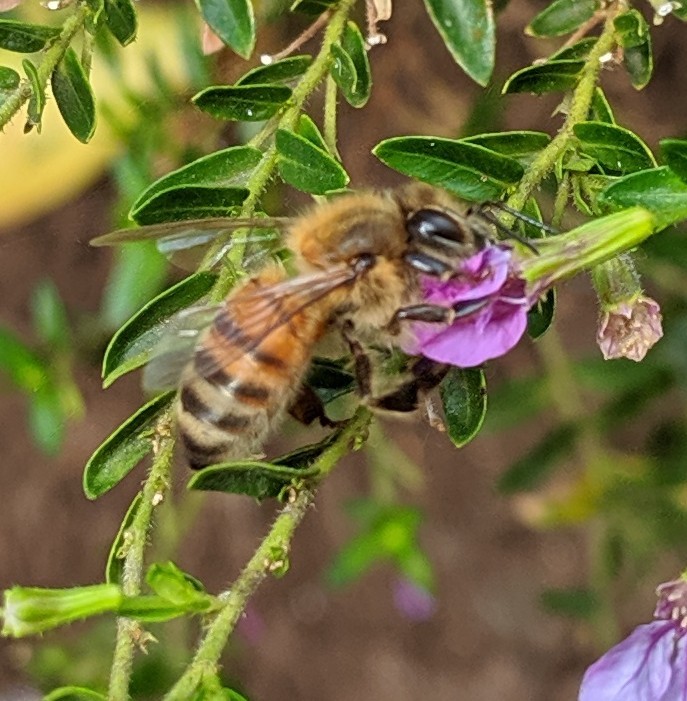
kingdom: Animalia
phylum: Arthropoda
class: Insecta
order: Hymenoptera
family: Apidae
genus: Apis
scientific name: Apis mellifera
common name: Honey bee
